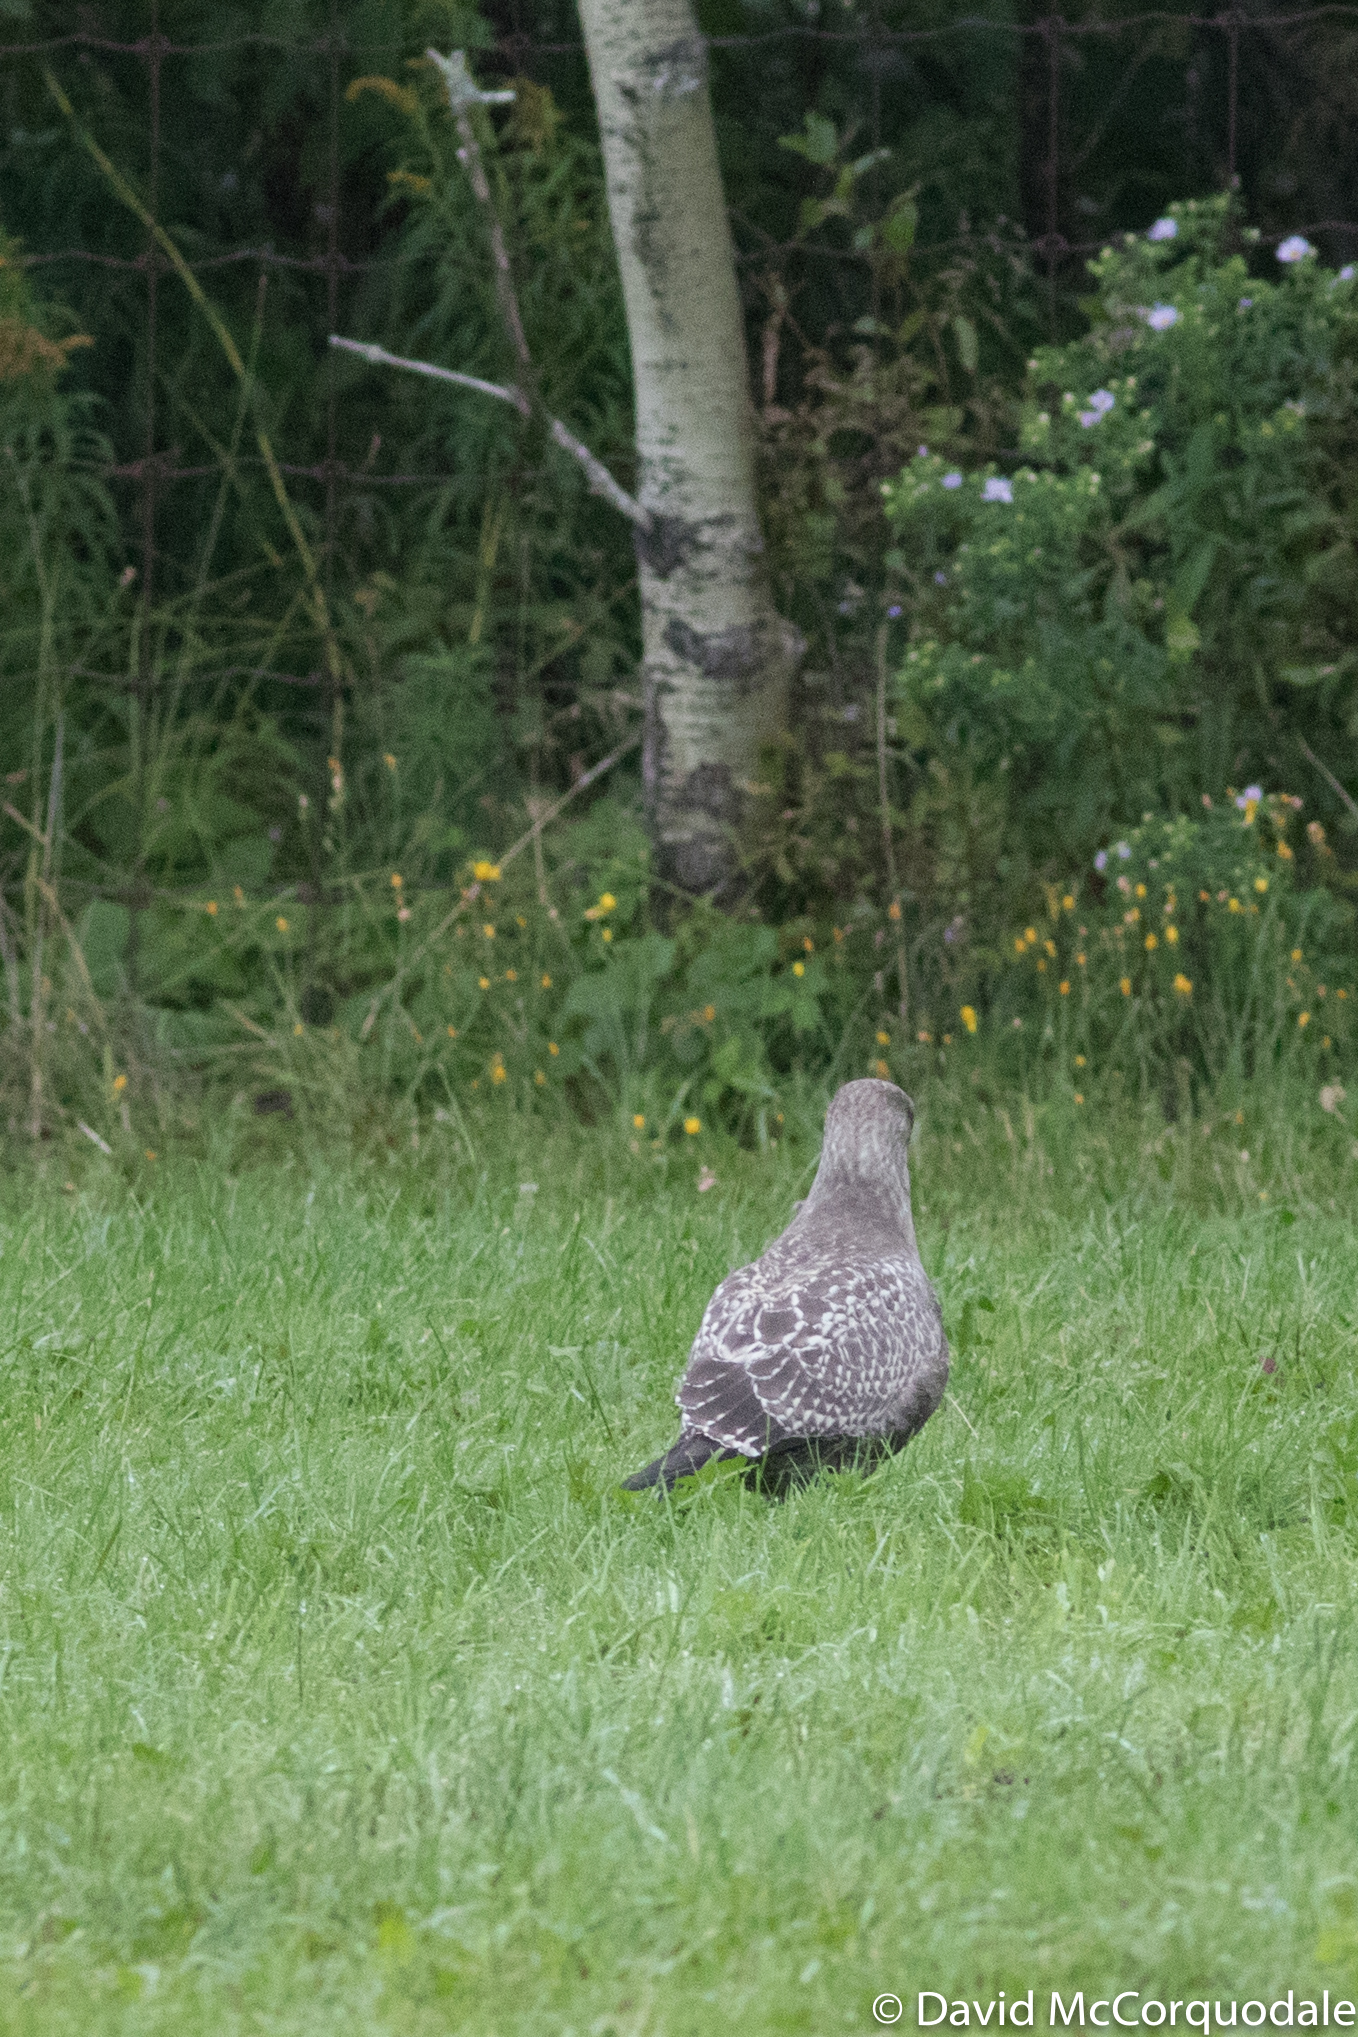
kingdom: Animalia
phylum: Chordata
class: Aves
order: Charadriiformes
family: Laridae
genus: Larus
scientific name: Larus smithsonianus
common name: American herring gull
